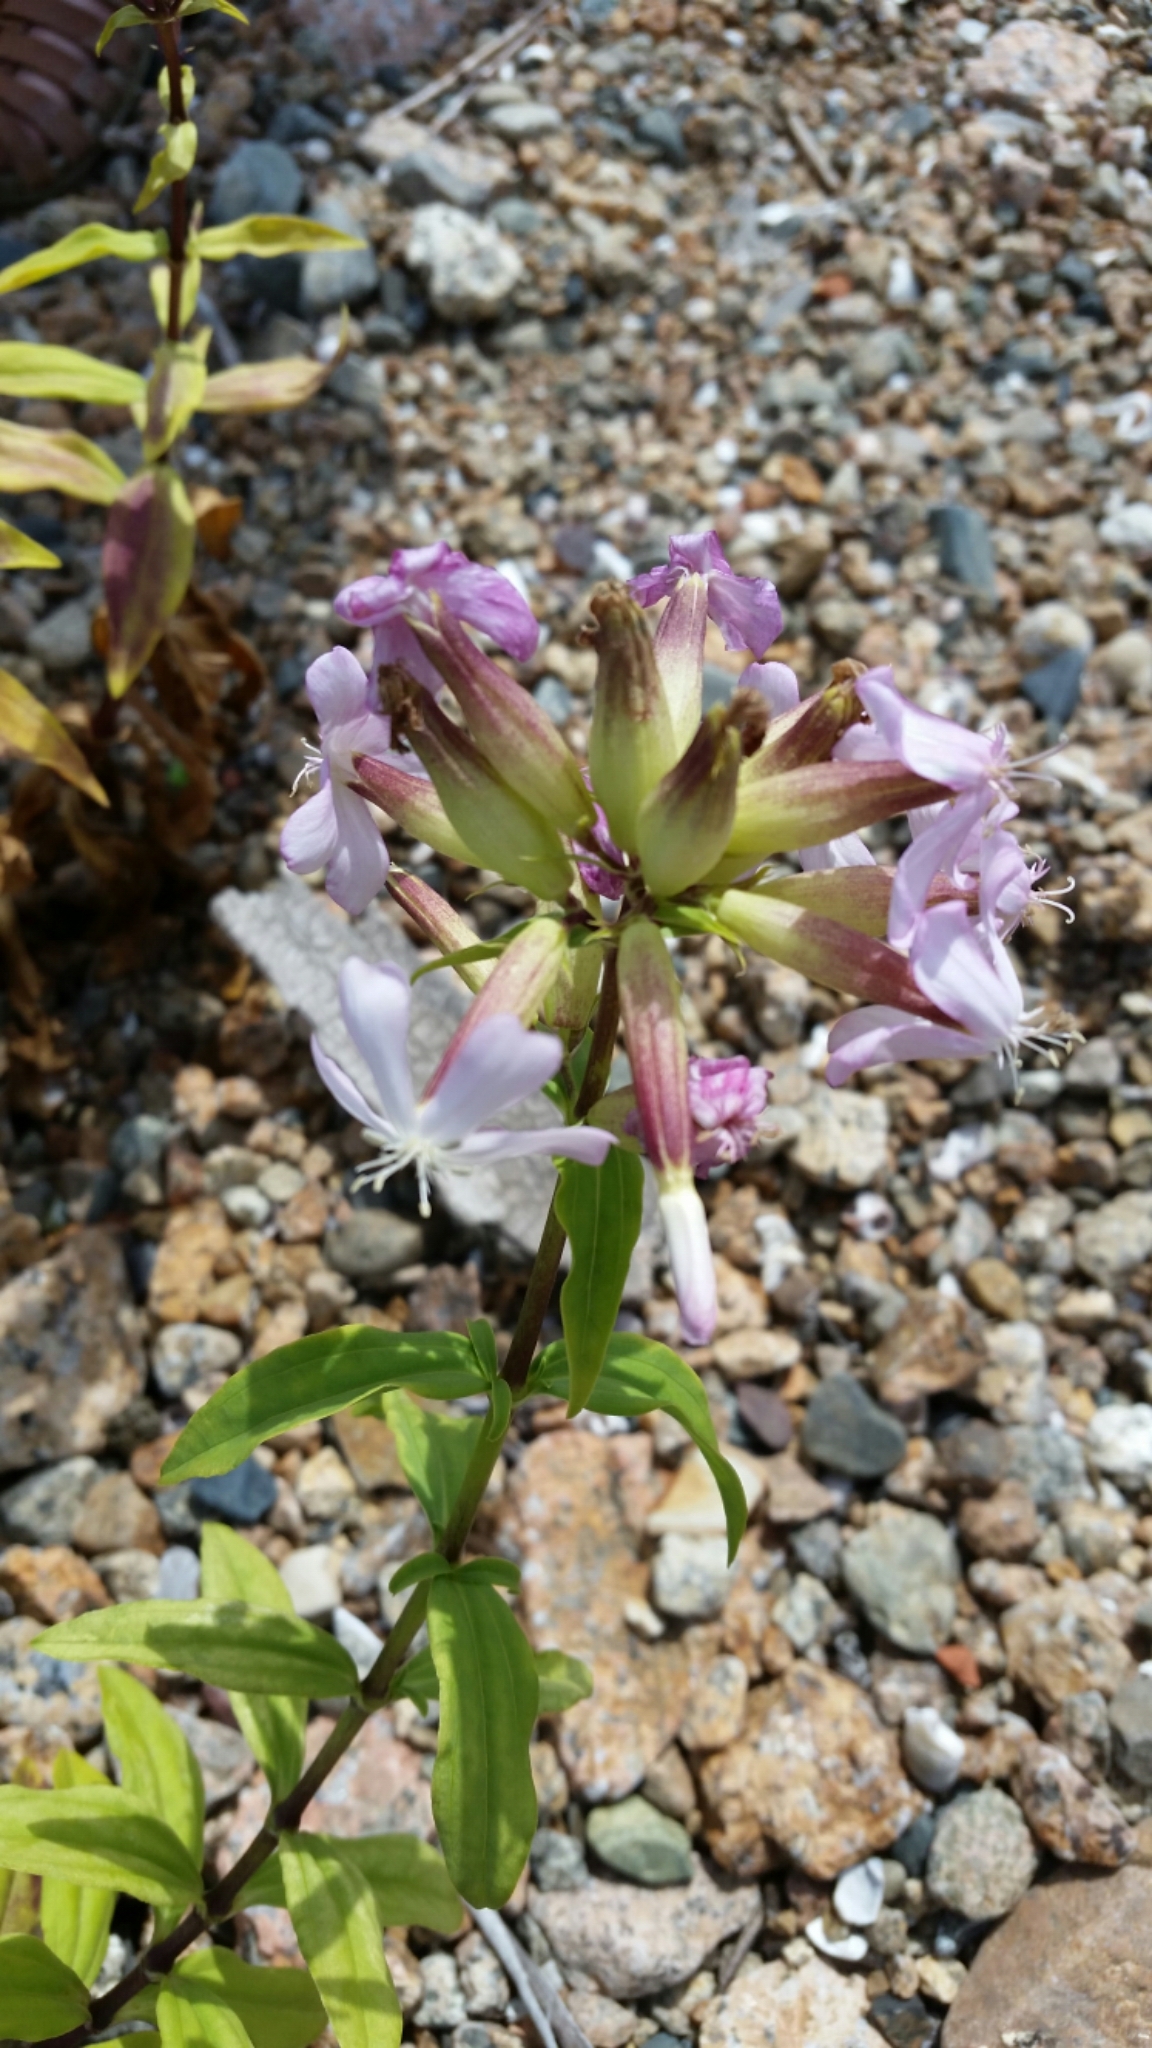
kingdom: Plantae
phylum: Tracheophyta
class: Magnoliopsida
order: Caryophyllales
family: Caryophyllaceae
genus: Saponaria
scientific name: Saponaria officinalis
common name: Soapwort
